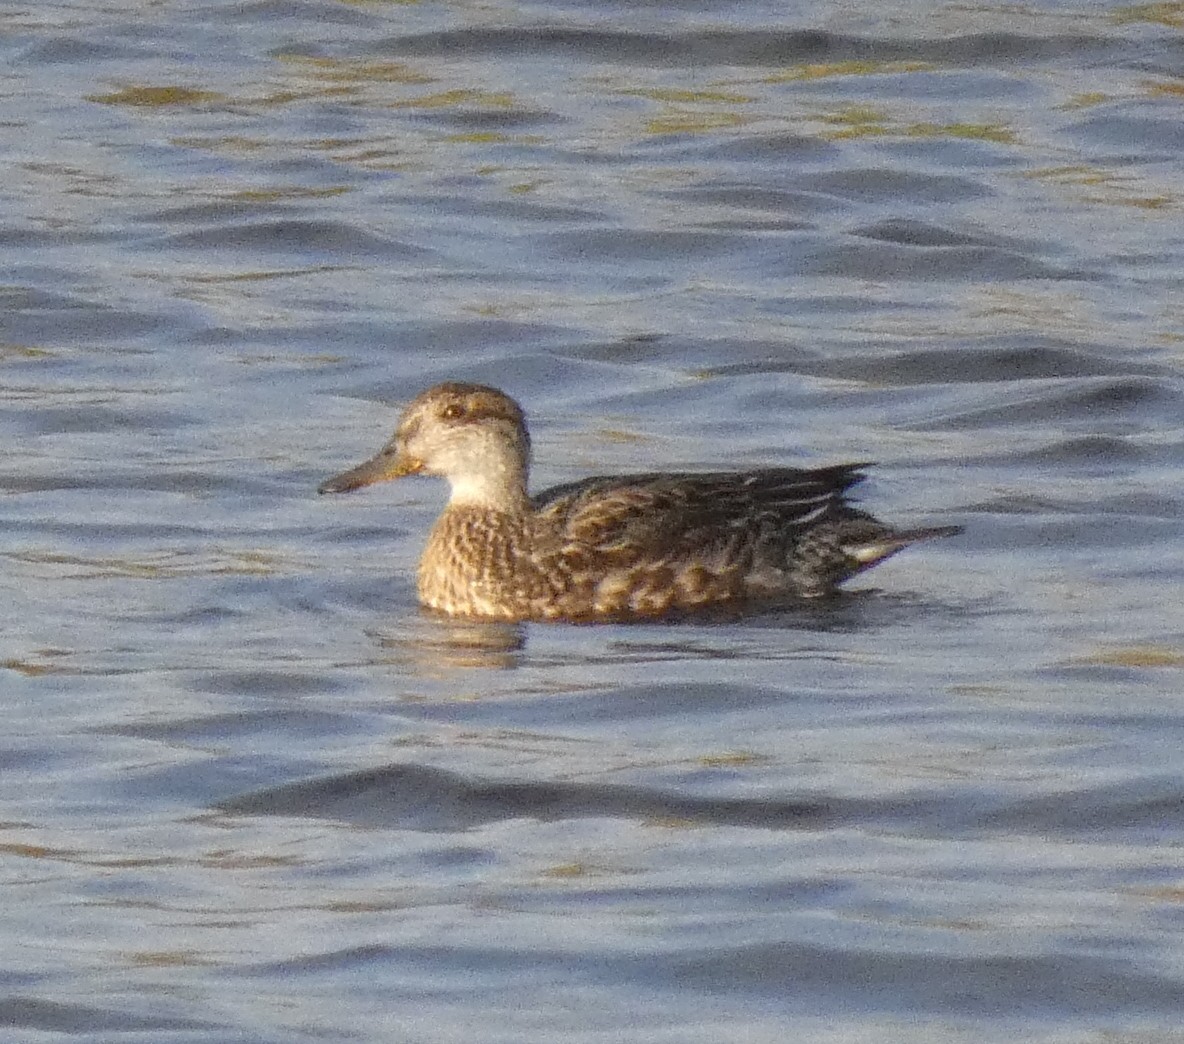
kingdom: Animalia
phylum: Chordata
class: Aves
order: Anseriformes
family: Anatidae
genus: Anas
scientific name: Anas crecca
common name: Eurasian teal
